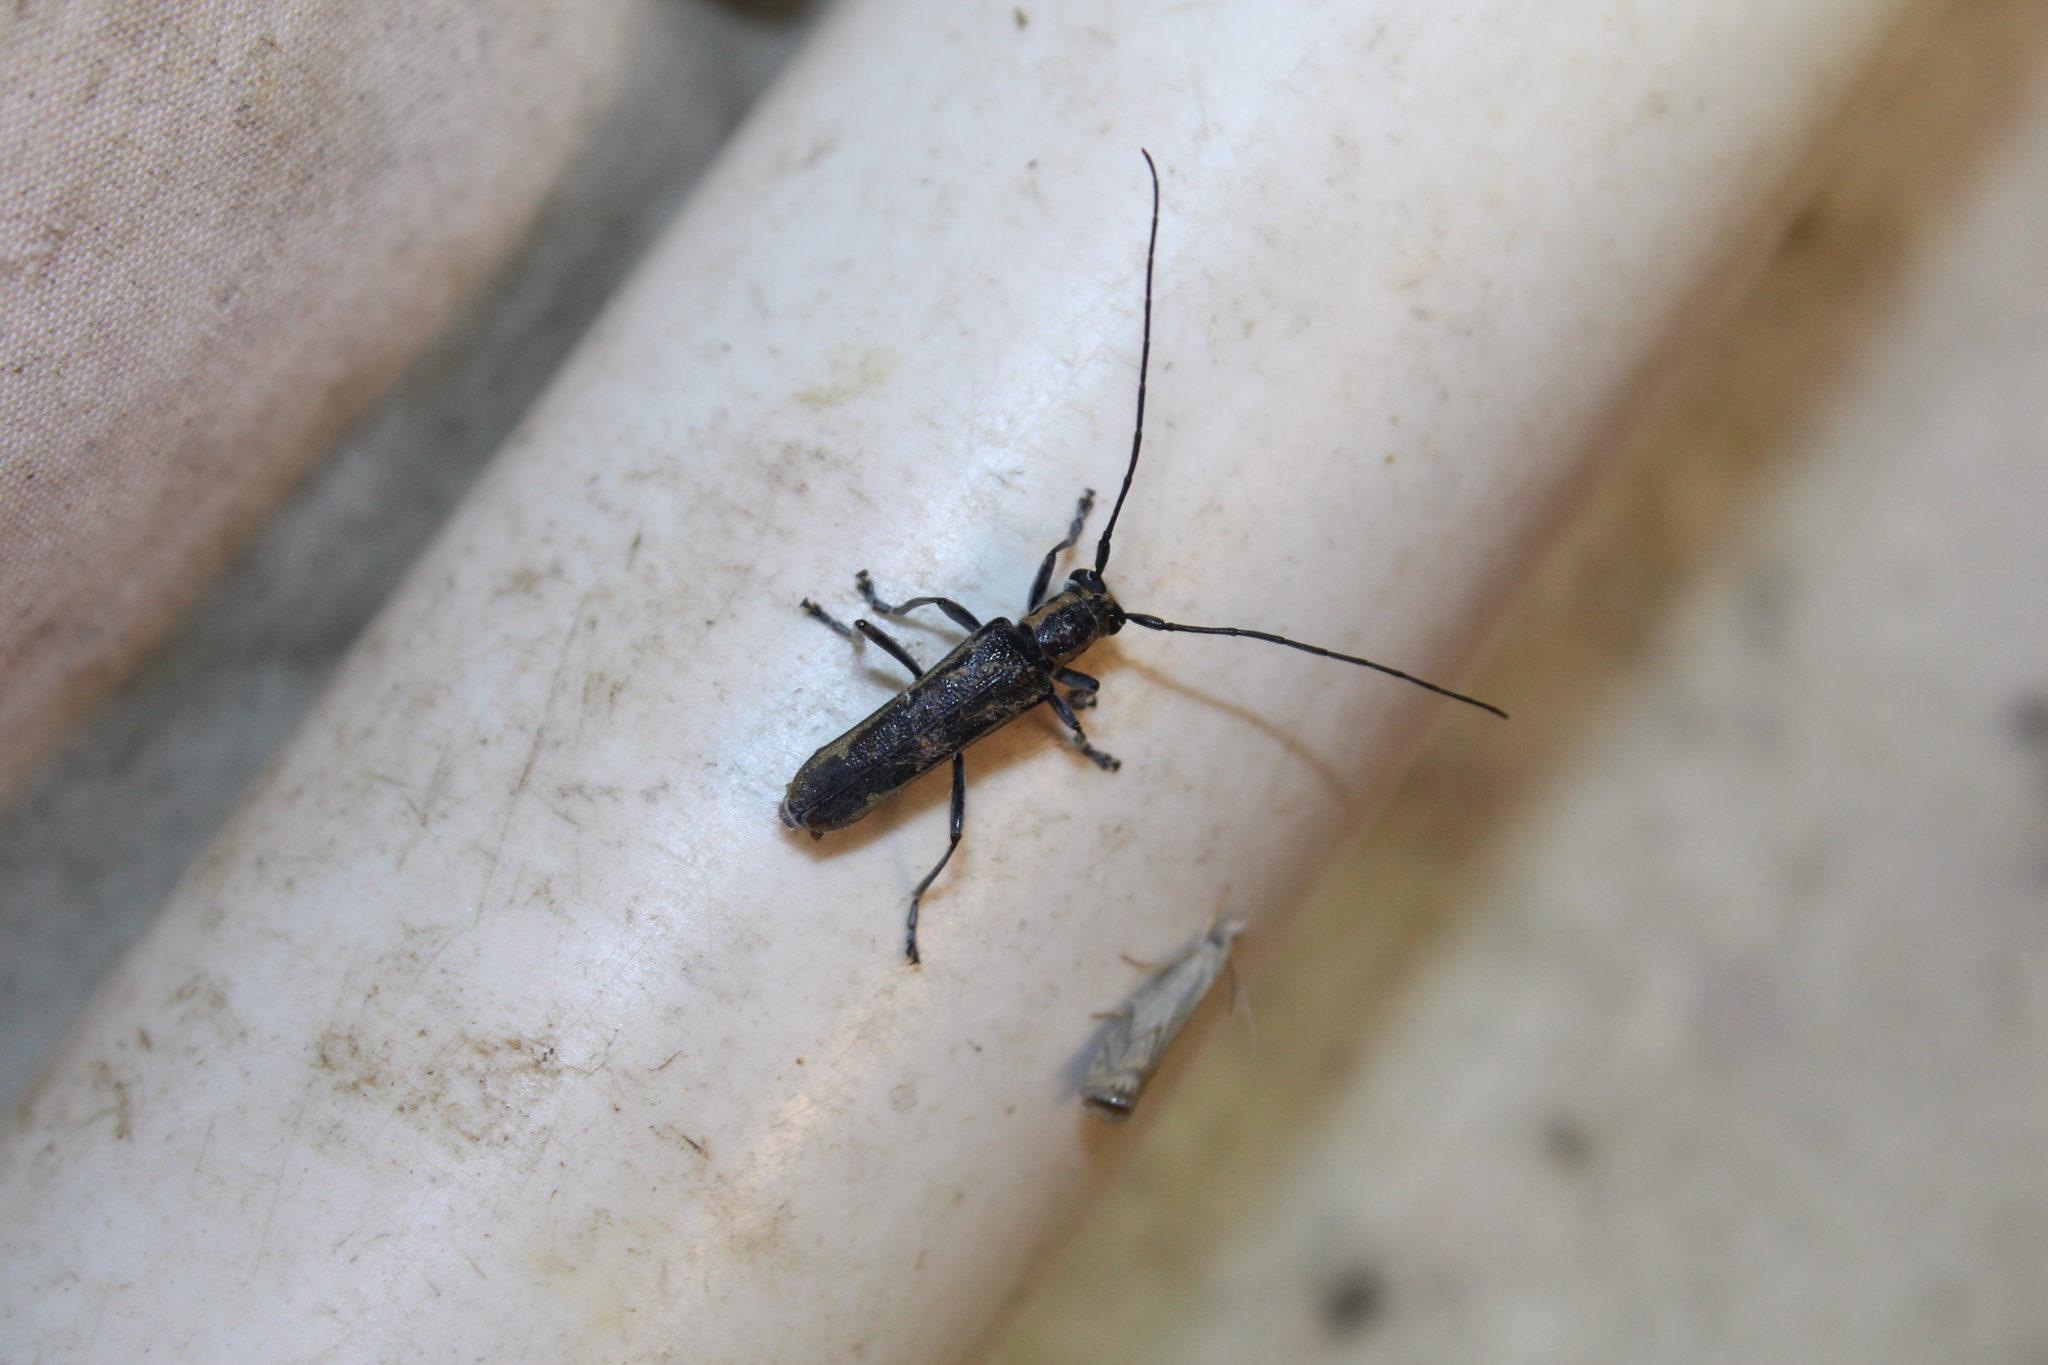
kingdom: Animalia
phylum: Arthropoda
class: Insecta
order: Coleoptera
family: Cerambycidae
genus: Saperda
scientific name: Saperda imitans
